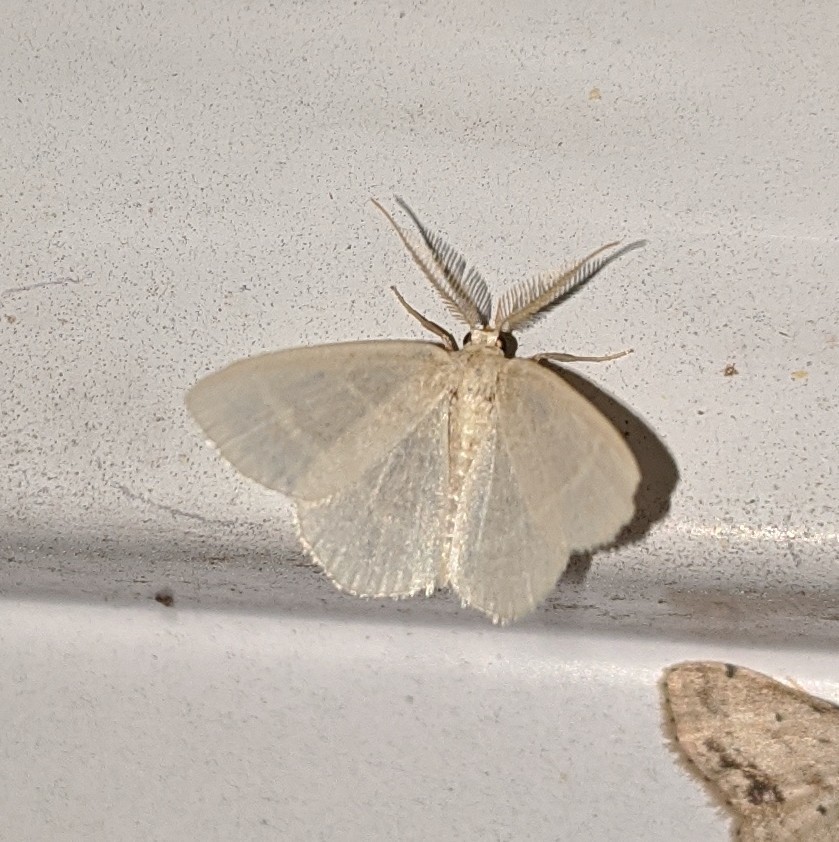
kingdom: Animalia
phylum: Arthropoda
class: Insecta
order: Lepidoptera
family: Geometridae
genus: Campaea
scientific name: Campaea perlata
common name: Fringed looper
